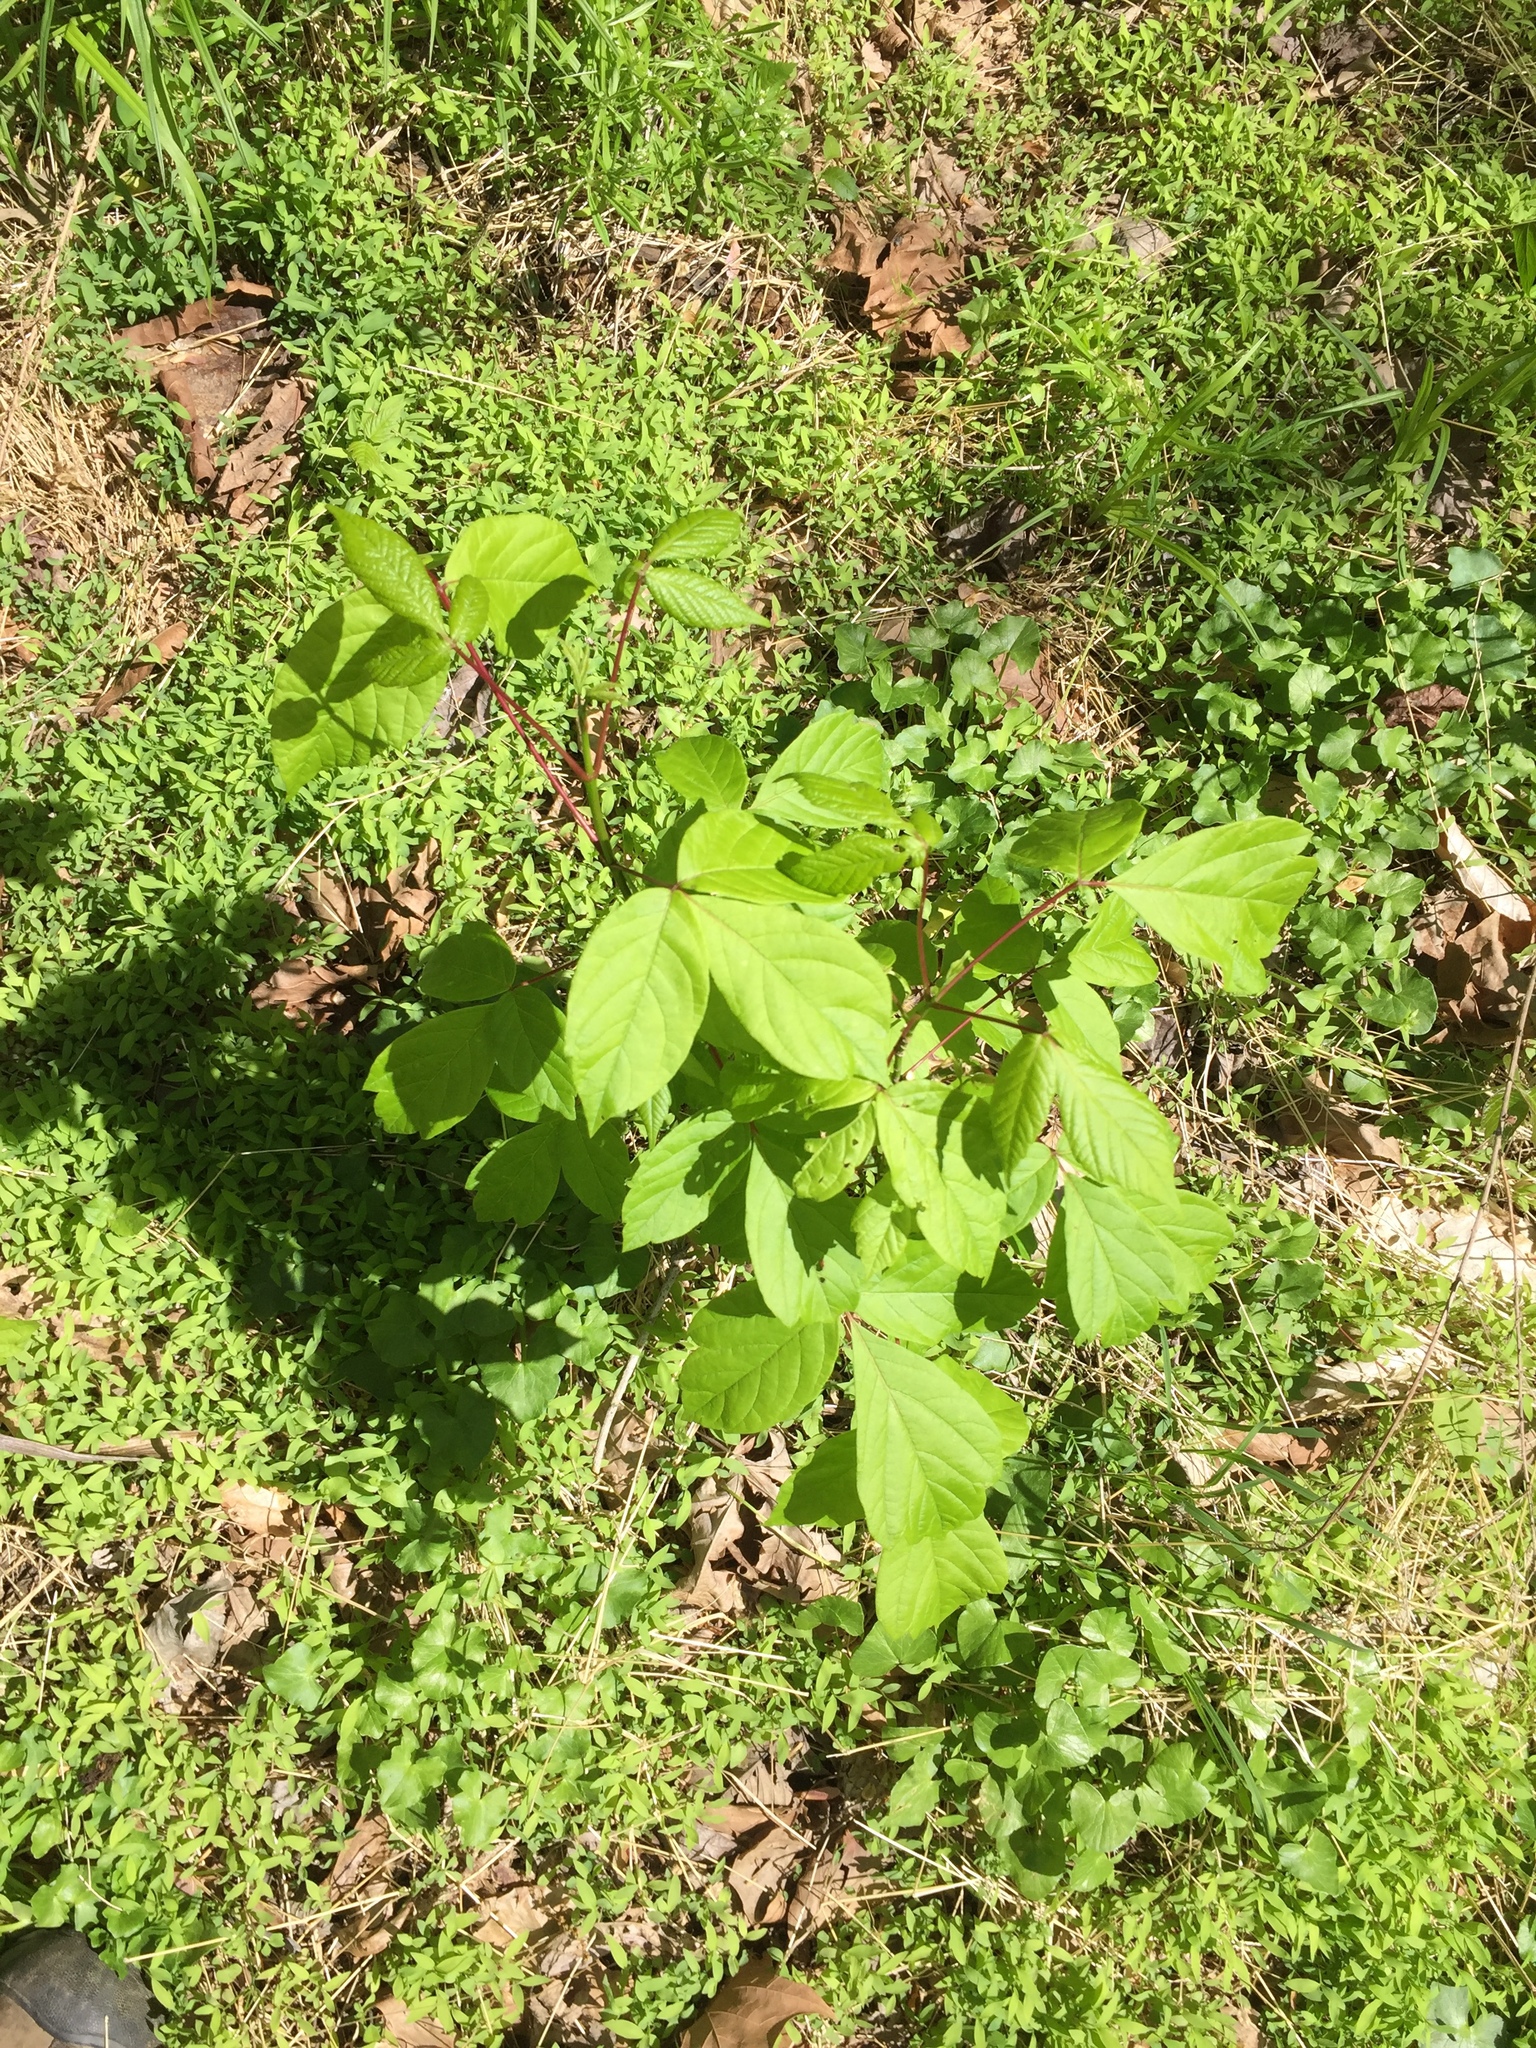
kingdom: Plantae
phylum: Tracheophyta
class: Magnoliopsida
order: Sapindales
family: Sapindaceae
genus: Acer
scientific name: Acer negundo
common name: Ashleaf maple
